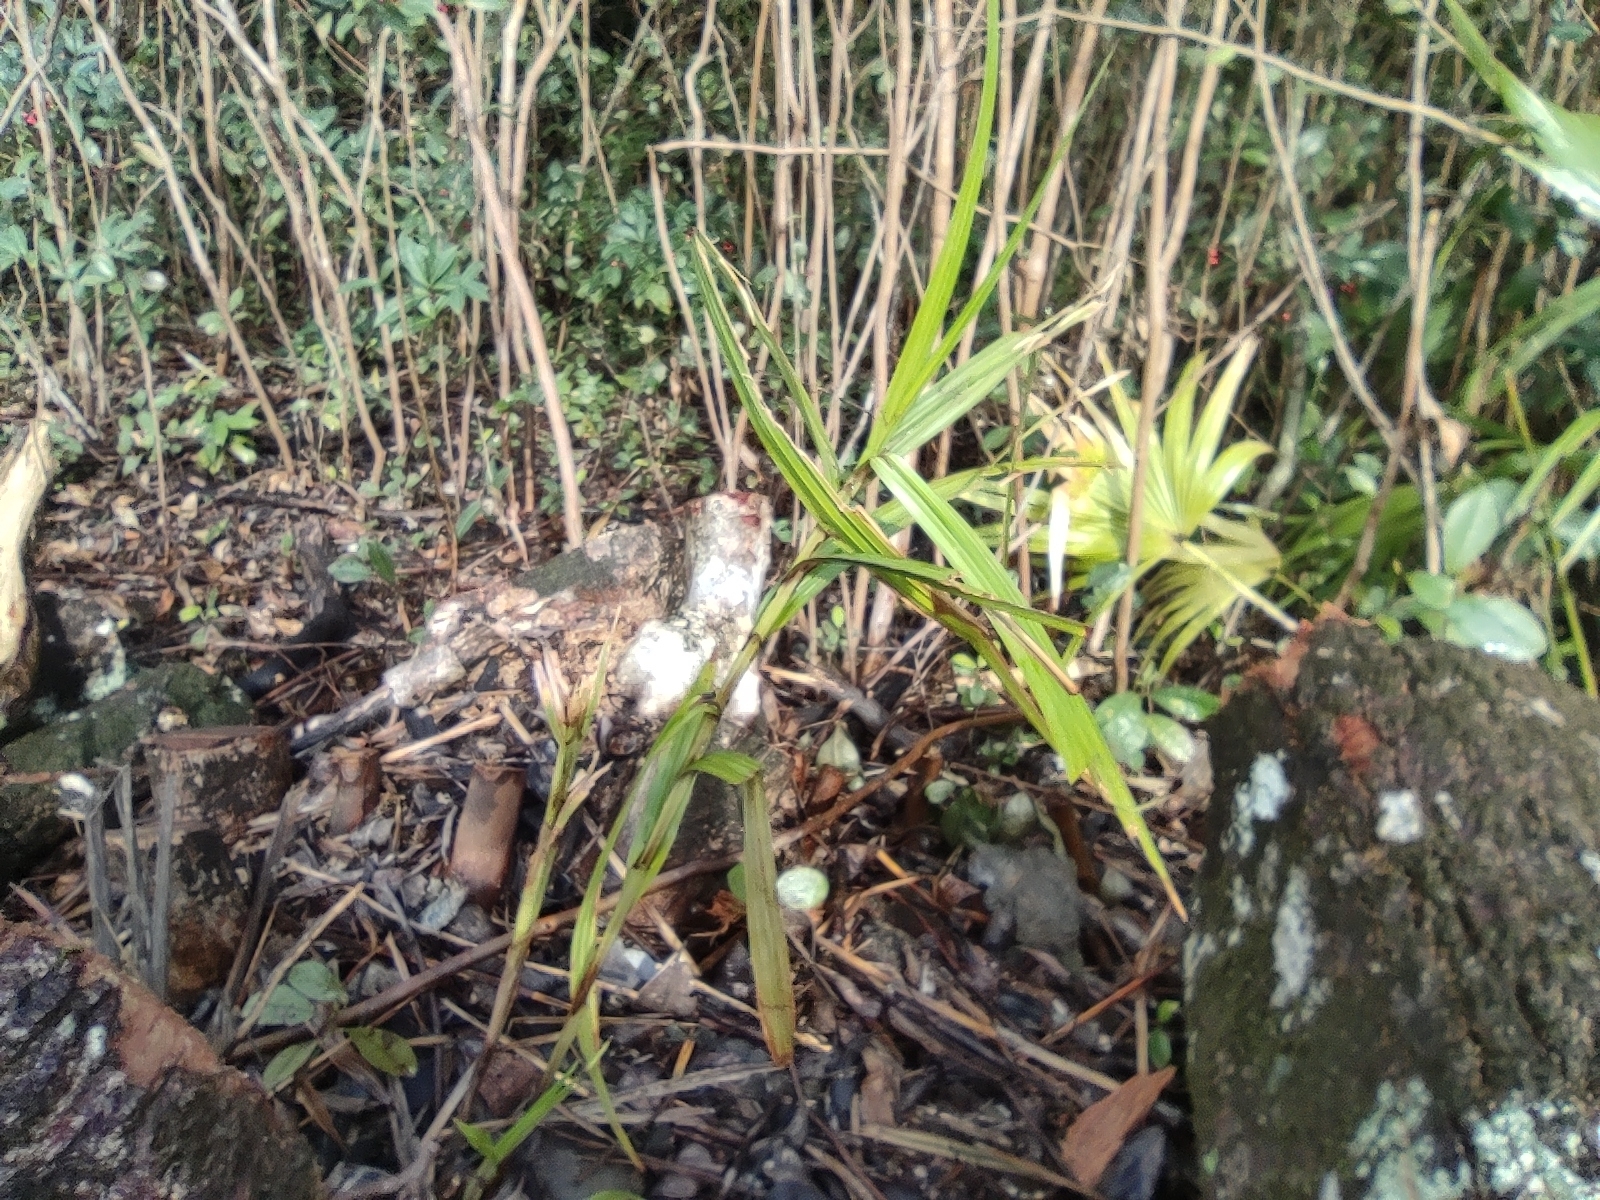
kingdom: Plantae
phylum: Tracheophyta
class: Liliopsida
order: Poales
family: Cyperaceae
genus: Scleria
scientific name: Scleria gaertneri
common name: Cortadera blanca
